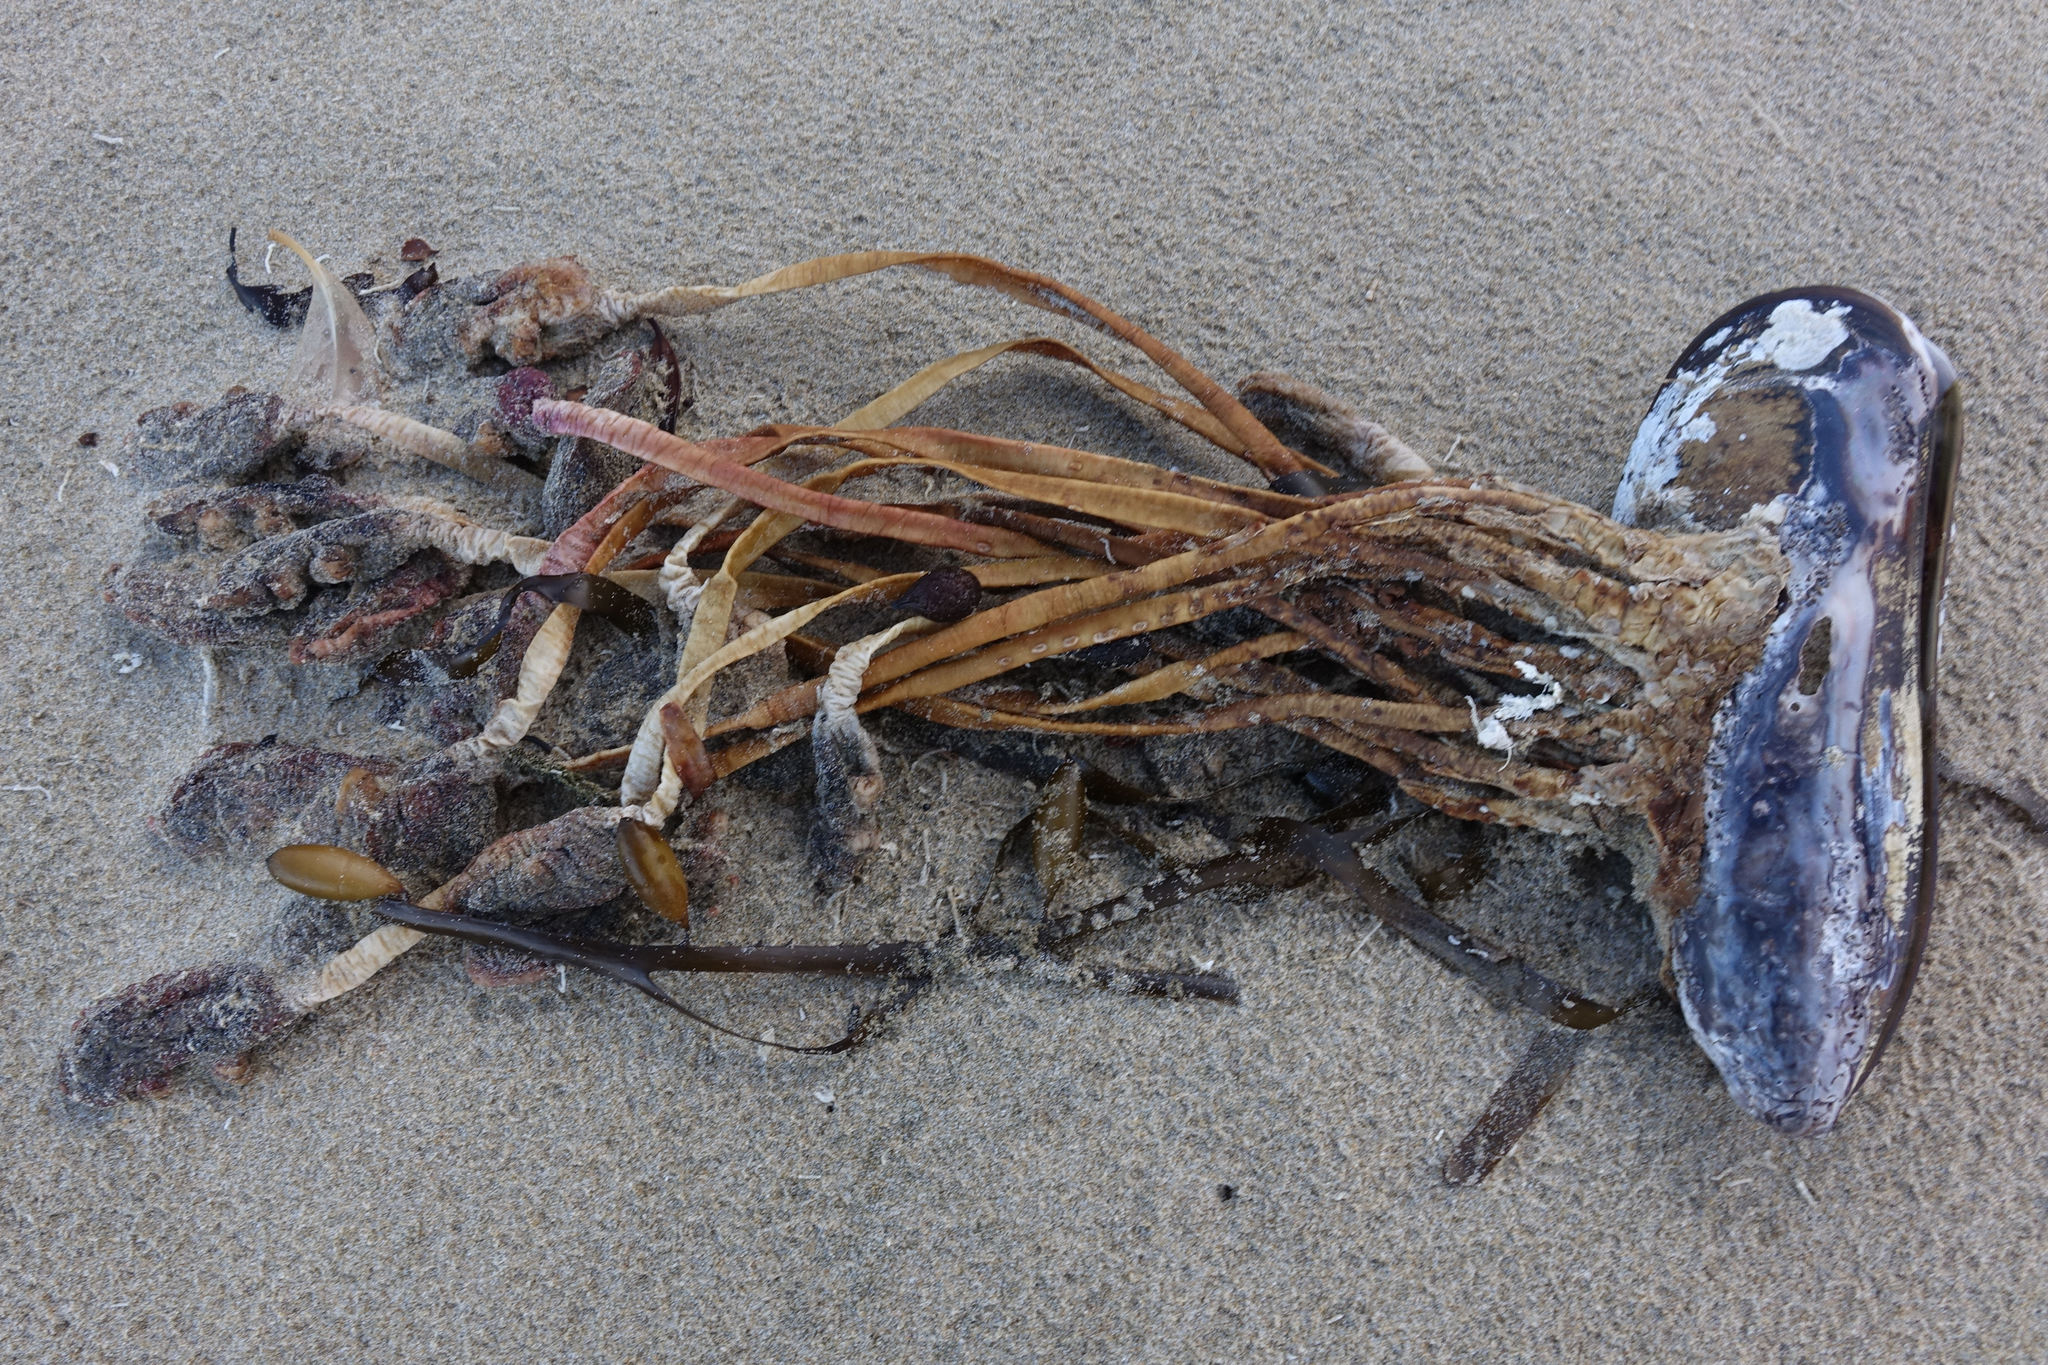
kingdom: Animalia
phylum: Chordata
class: Ascidiacea
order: Stolidobranchia
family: Pyuridae
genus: Pyura
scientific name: Pyura pachydermatina
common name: Sea tulip
